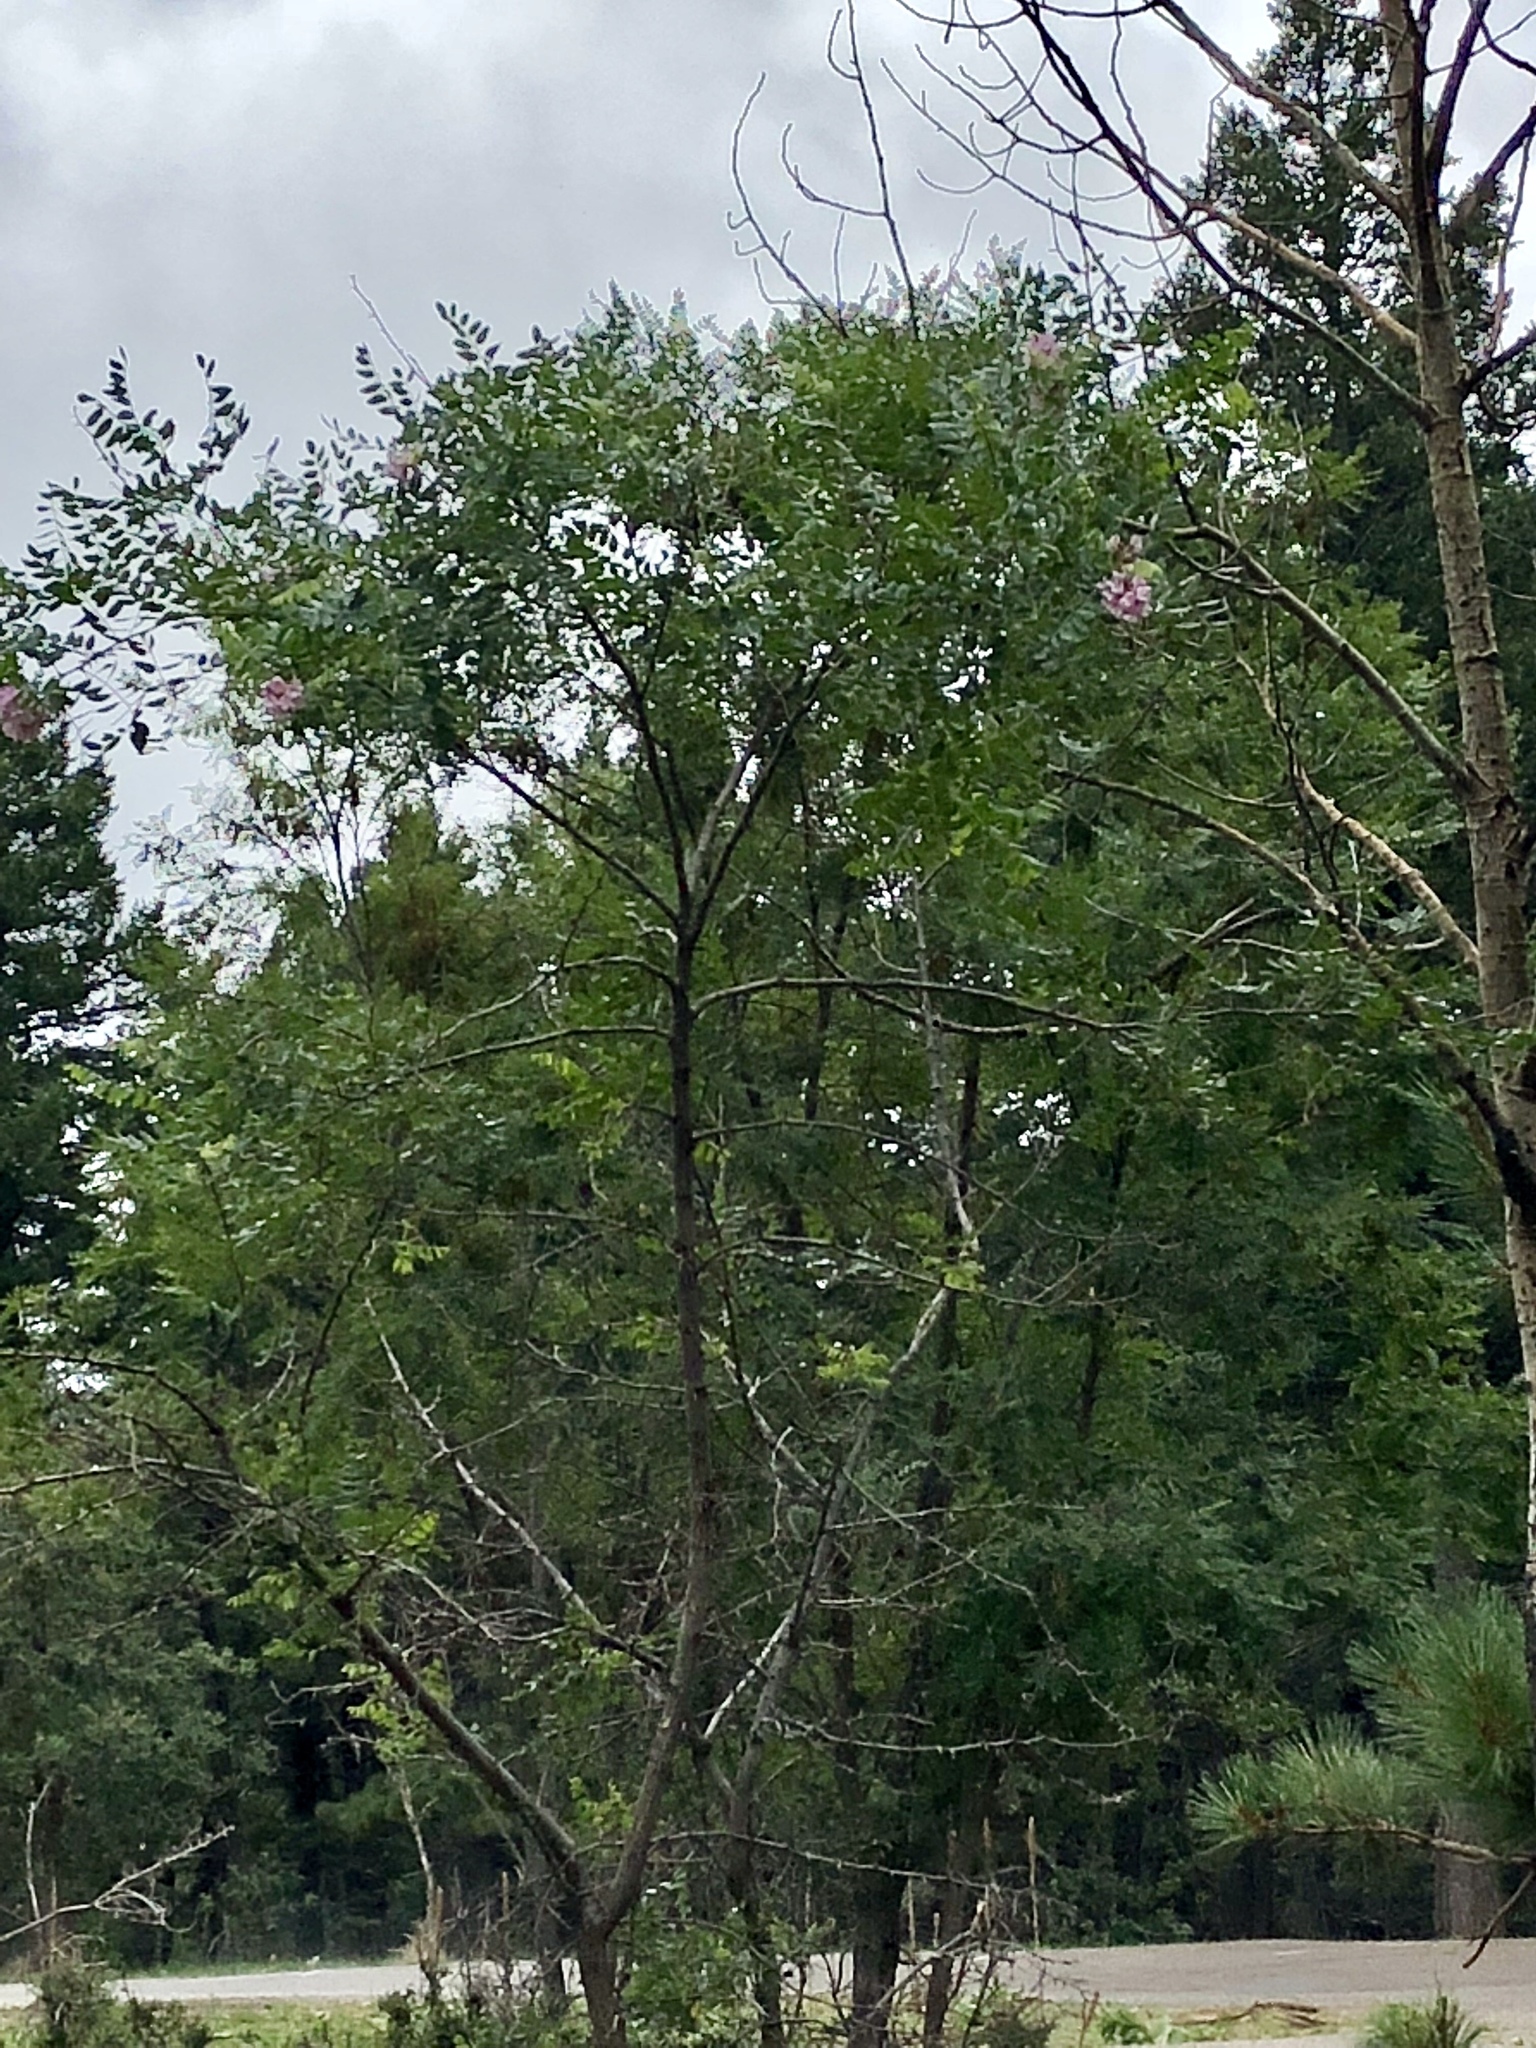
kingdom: Plantae
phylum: Tracheophyta
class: Magnoliopsida
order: Fabales
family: Fabaceae
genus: Robinia
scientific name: Robinia neomexicana
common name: New mexico locust
